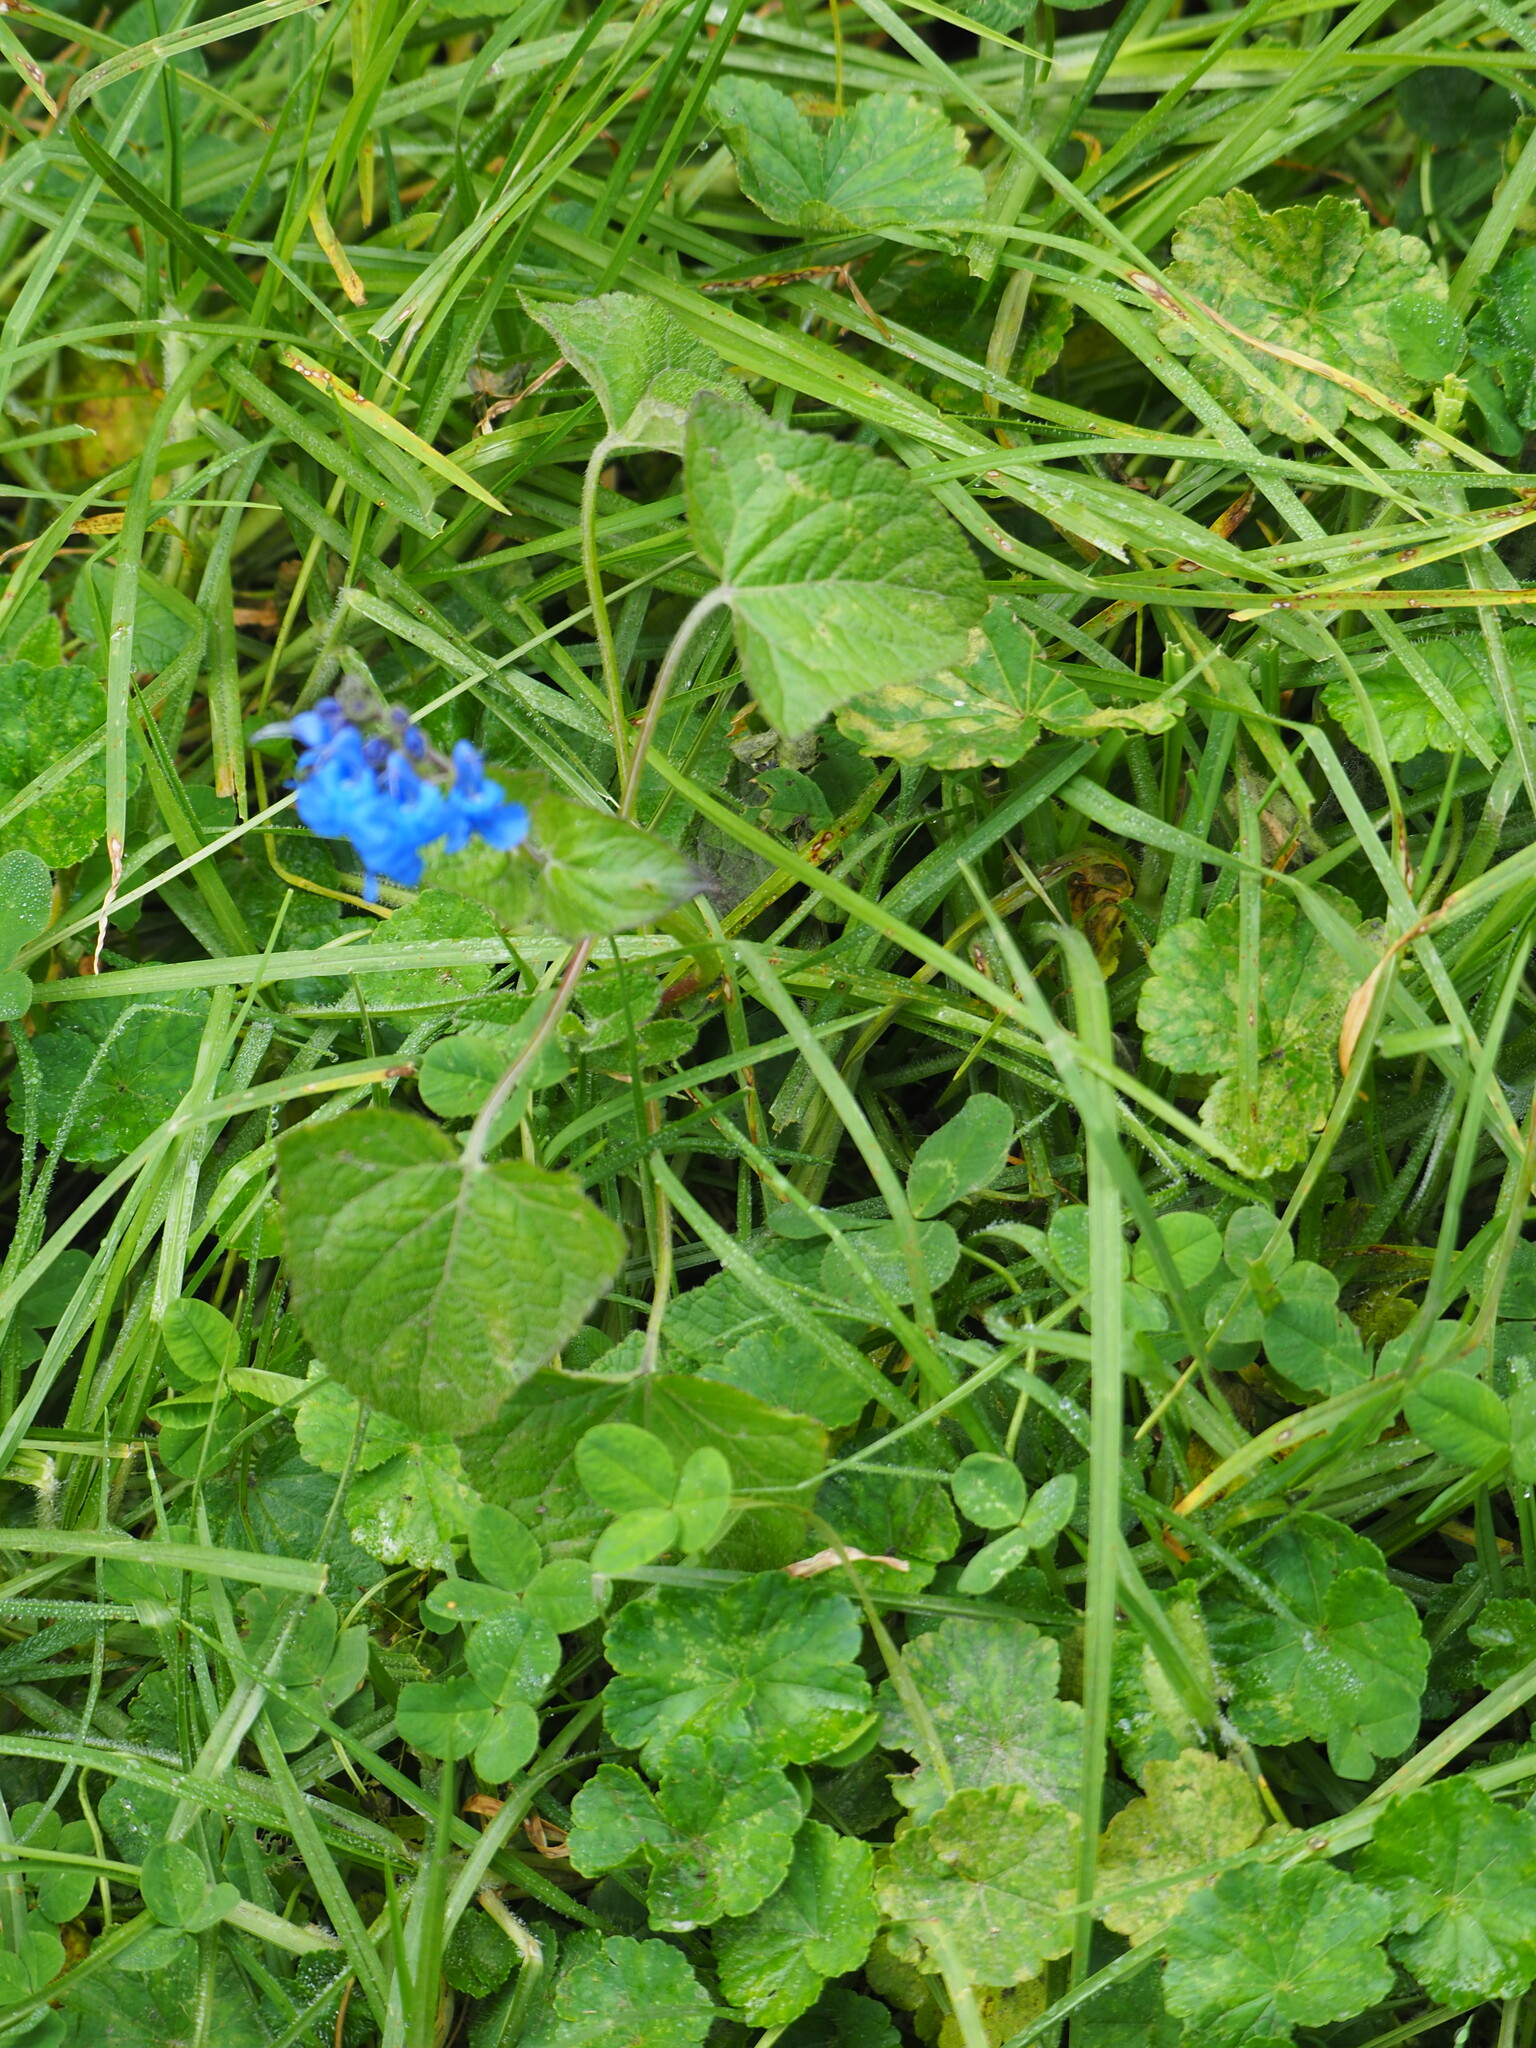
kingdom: Plantae
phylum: Tracheophyta
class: Magnoliopsida
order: Lamiales
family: Lamiaceae
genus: Salvia
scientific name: Salvia scutellarioides
